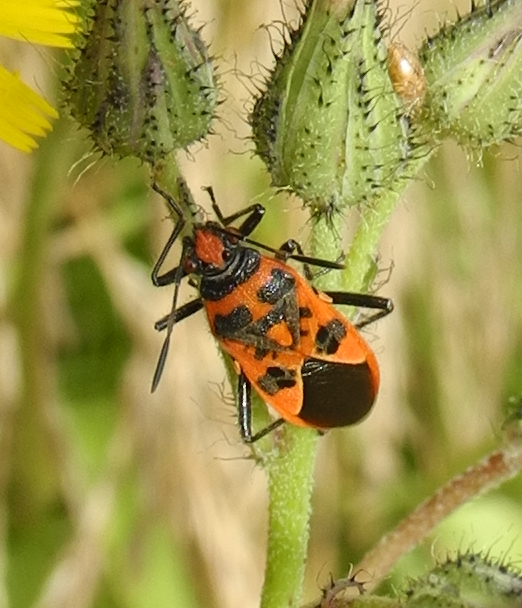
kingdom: Animalia
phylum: Arthropoda
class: Insecta
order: Hemiptera
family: Rhopalidae
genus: Corizus
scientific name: Corizus hyoscyami
